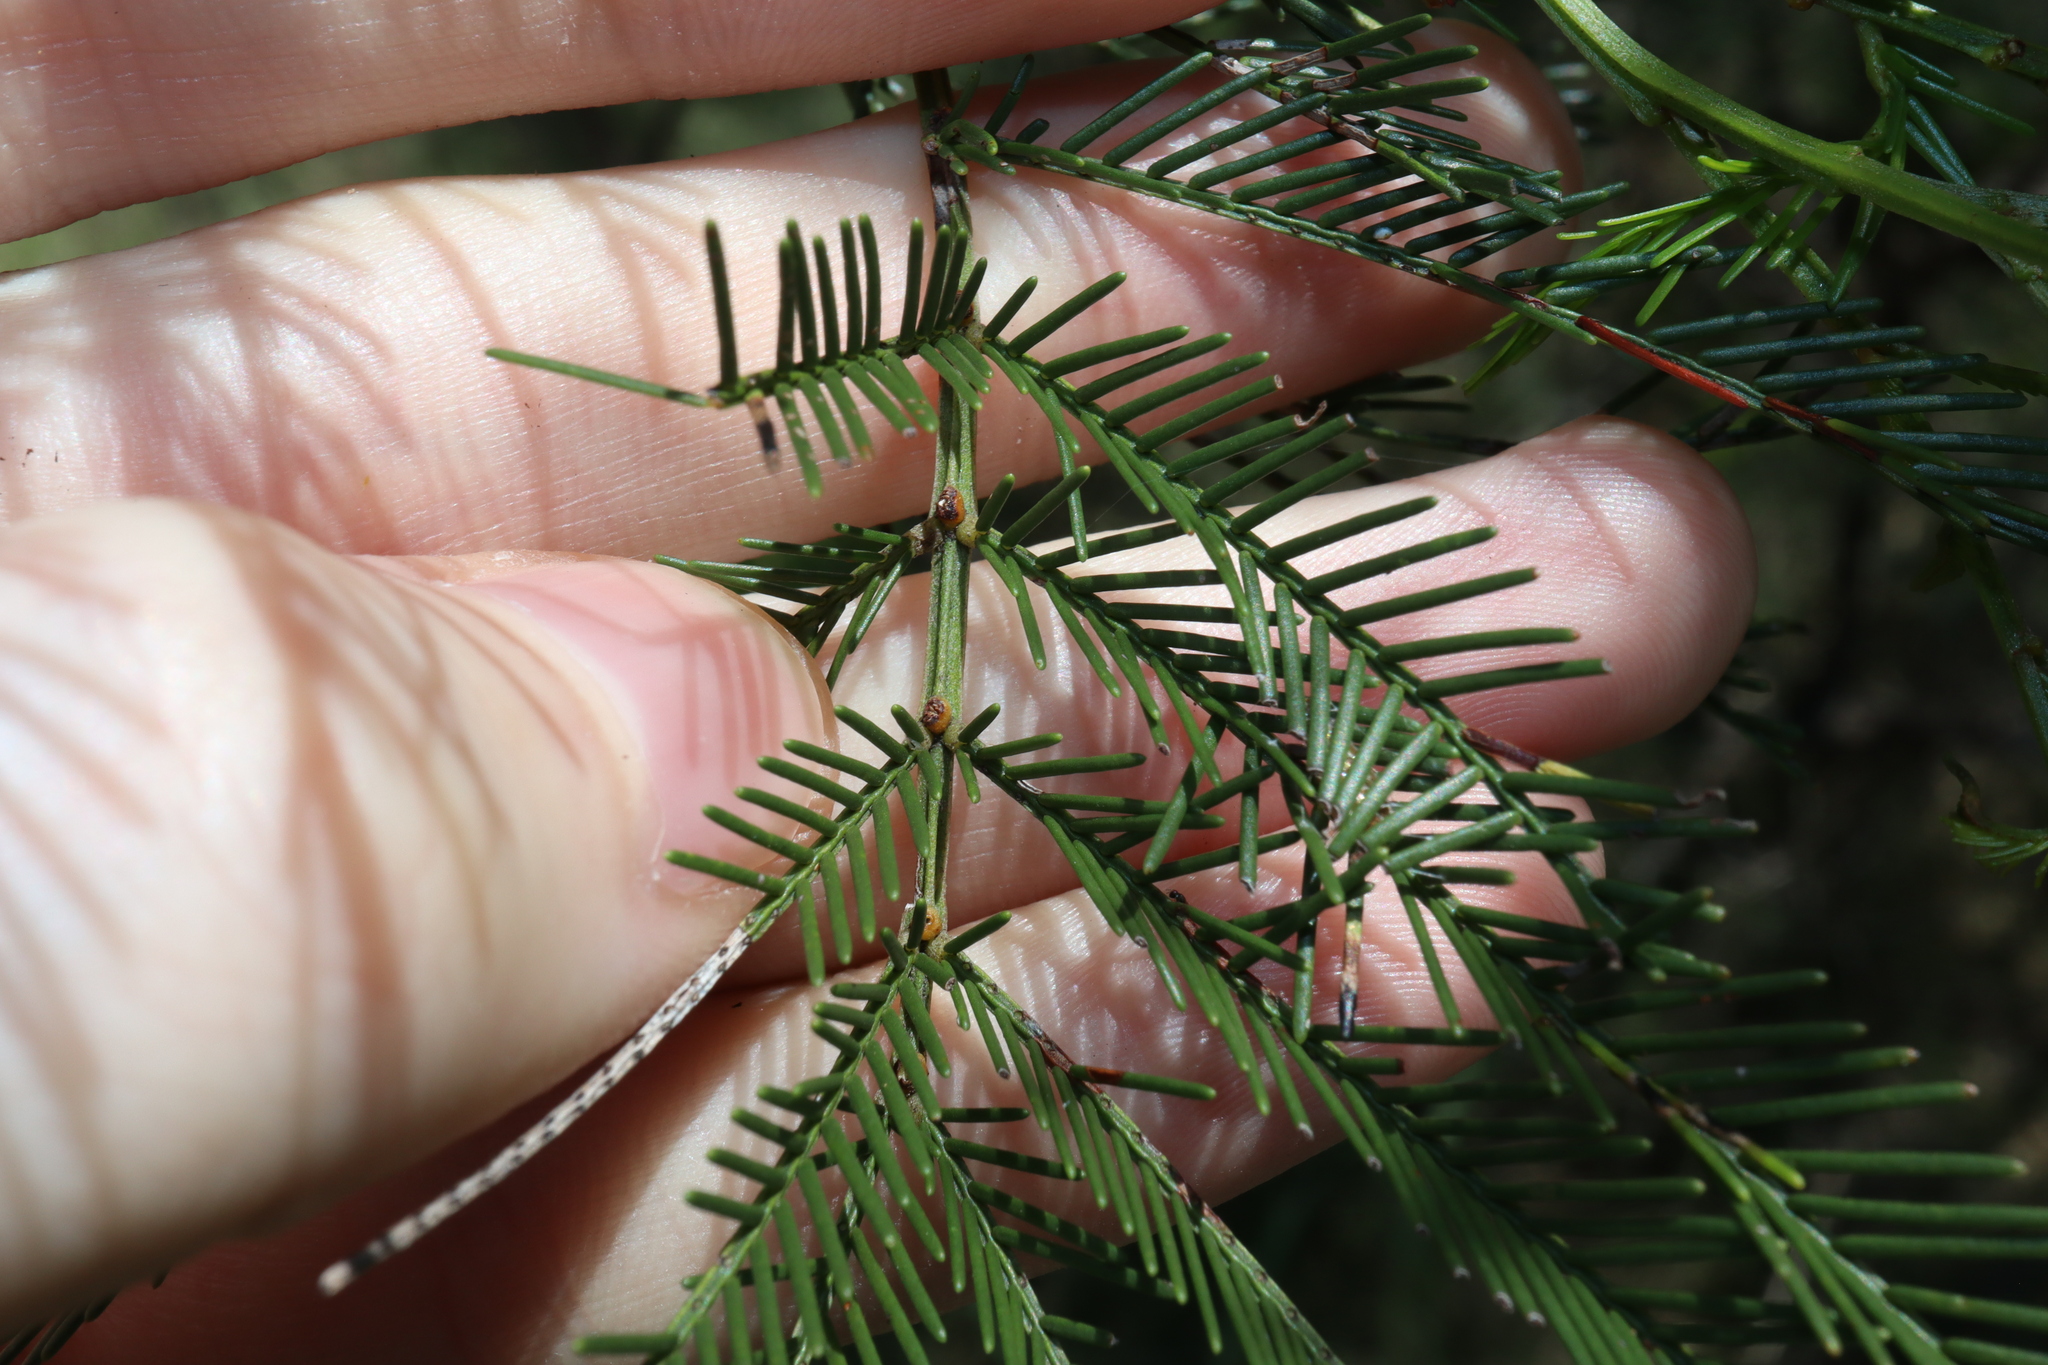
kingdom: Plantae
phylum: Tracheophyta
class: Magnoliopsida
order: Fabales
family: Fabaceae
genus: Acacia
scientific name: Acacia decurrens
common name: Green wattle
